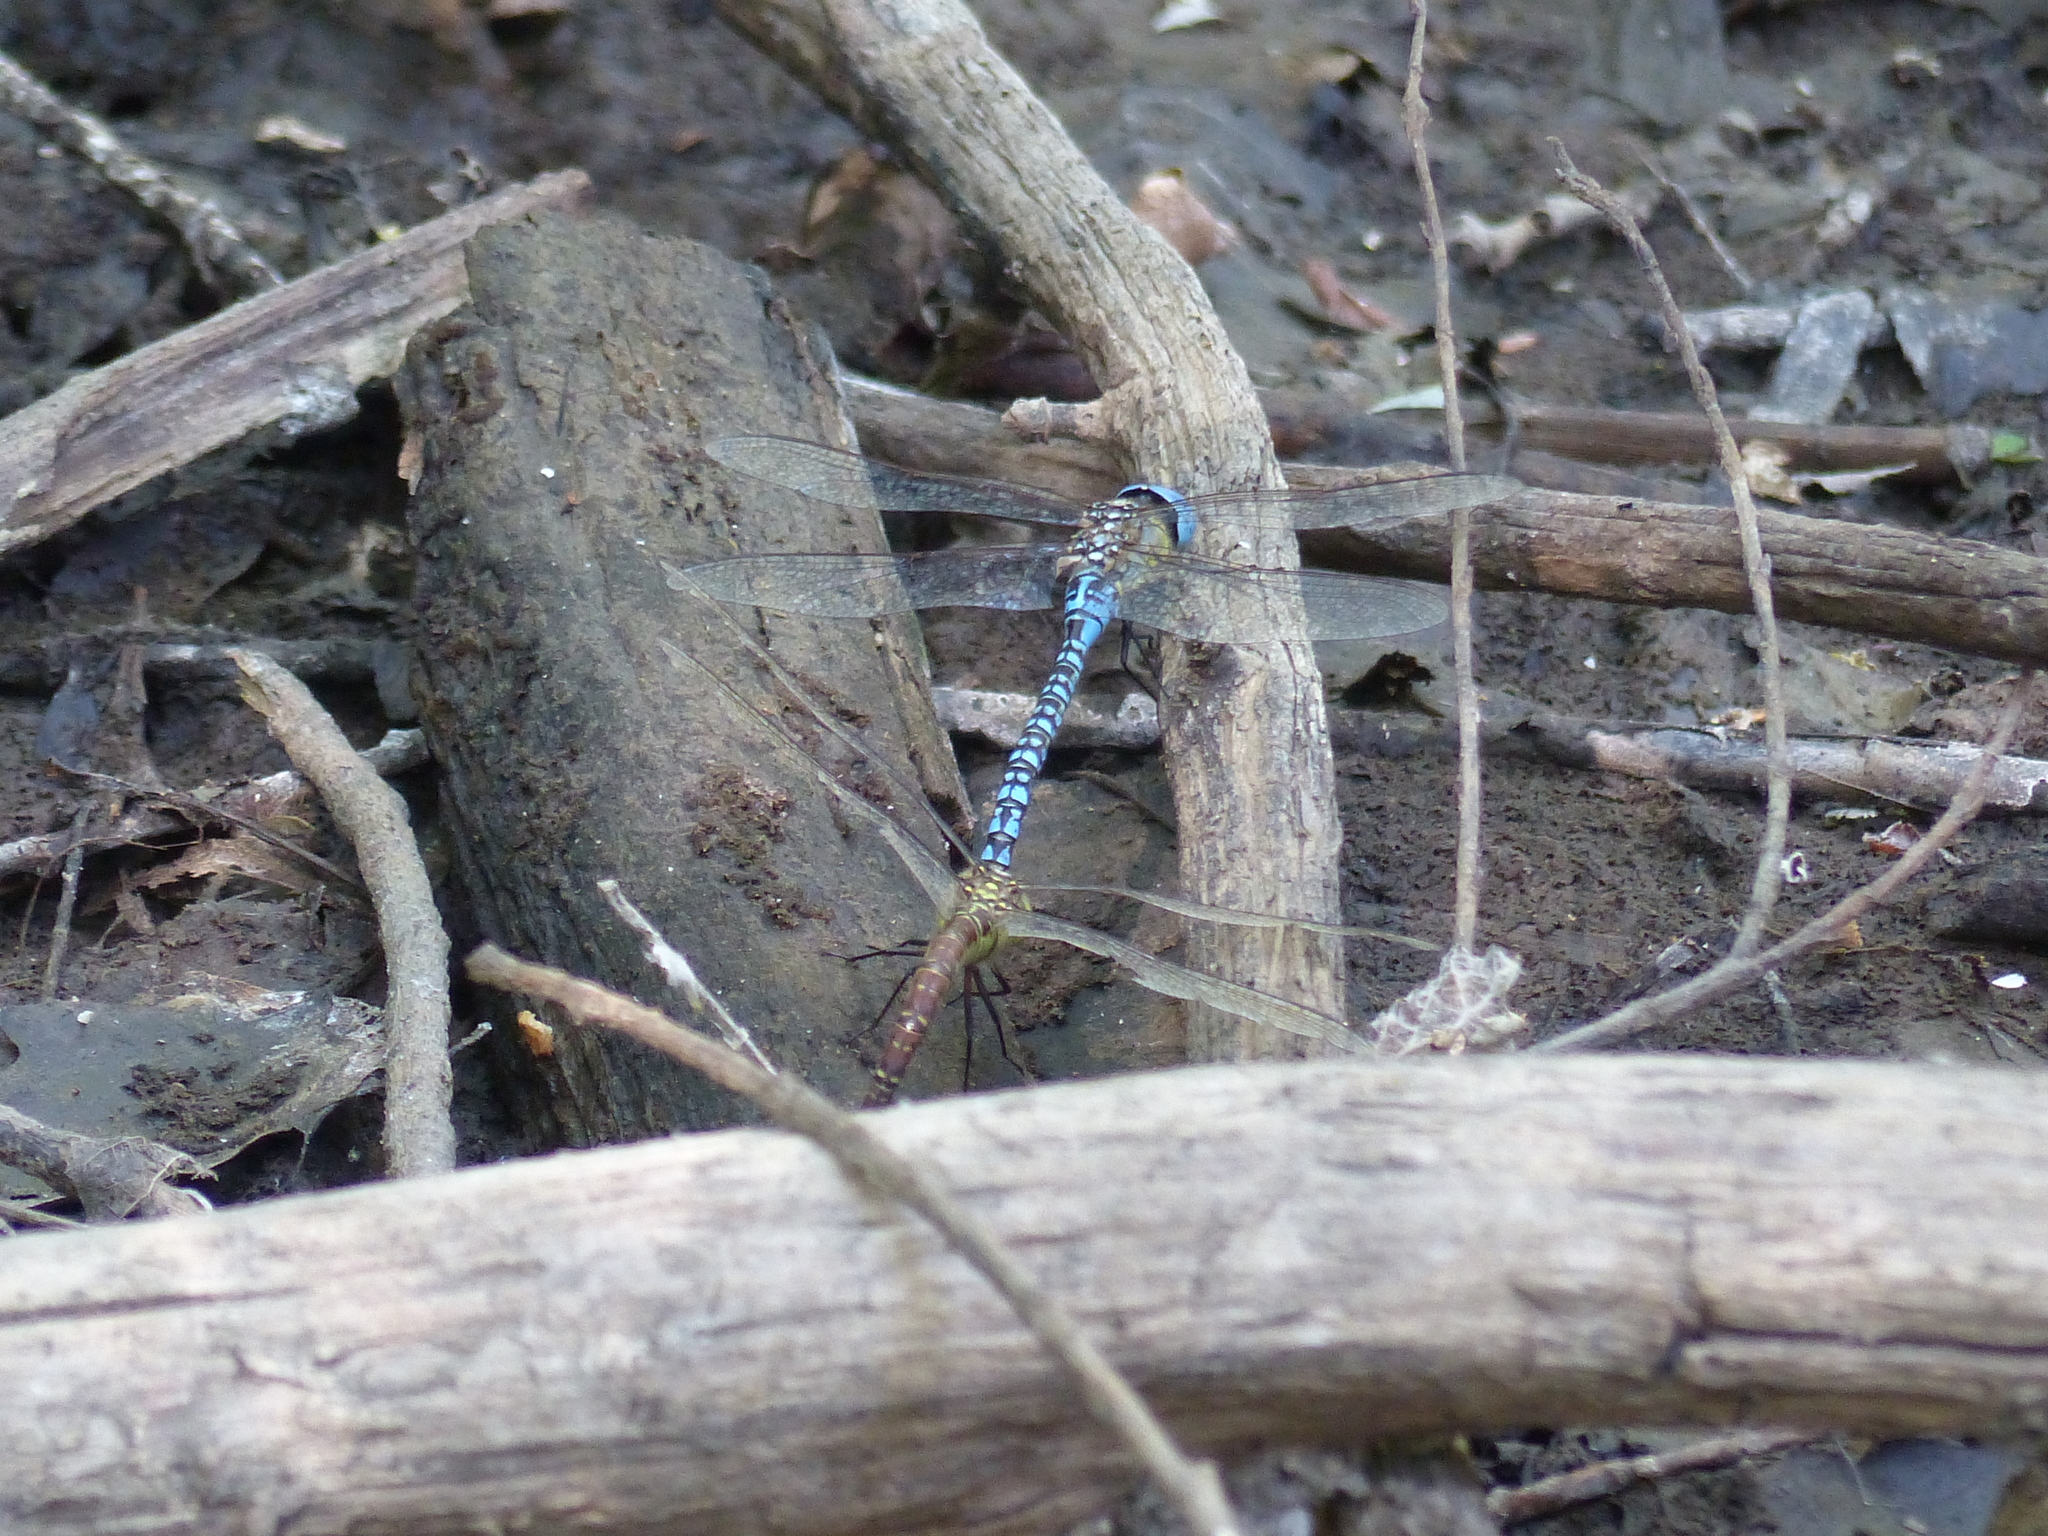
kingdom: Animalia
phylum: Arthropoda
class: Insecta
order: Odonata
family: Aeshnidae
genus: Aeshna
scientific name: Aeshna affinis
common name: Southern migrant hawker
